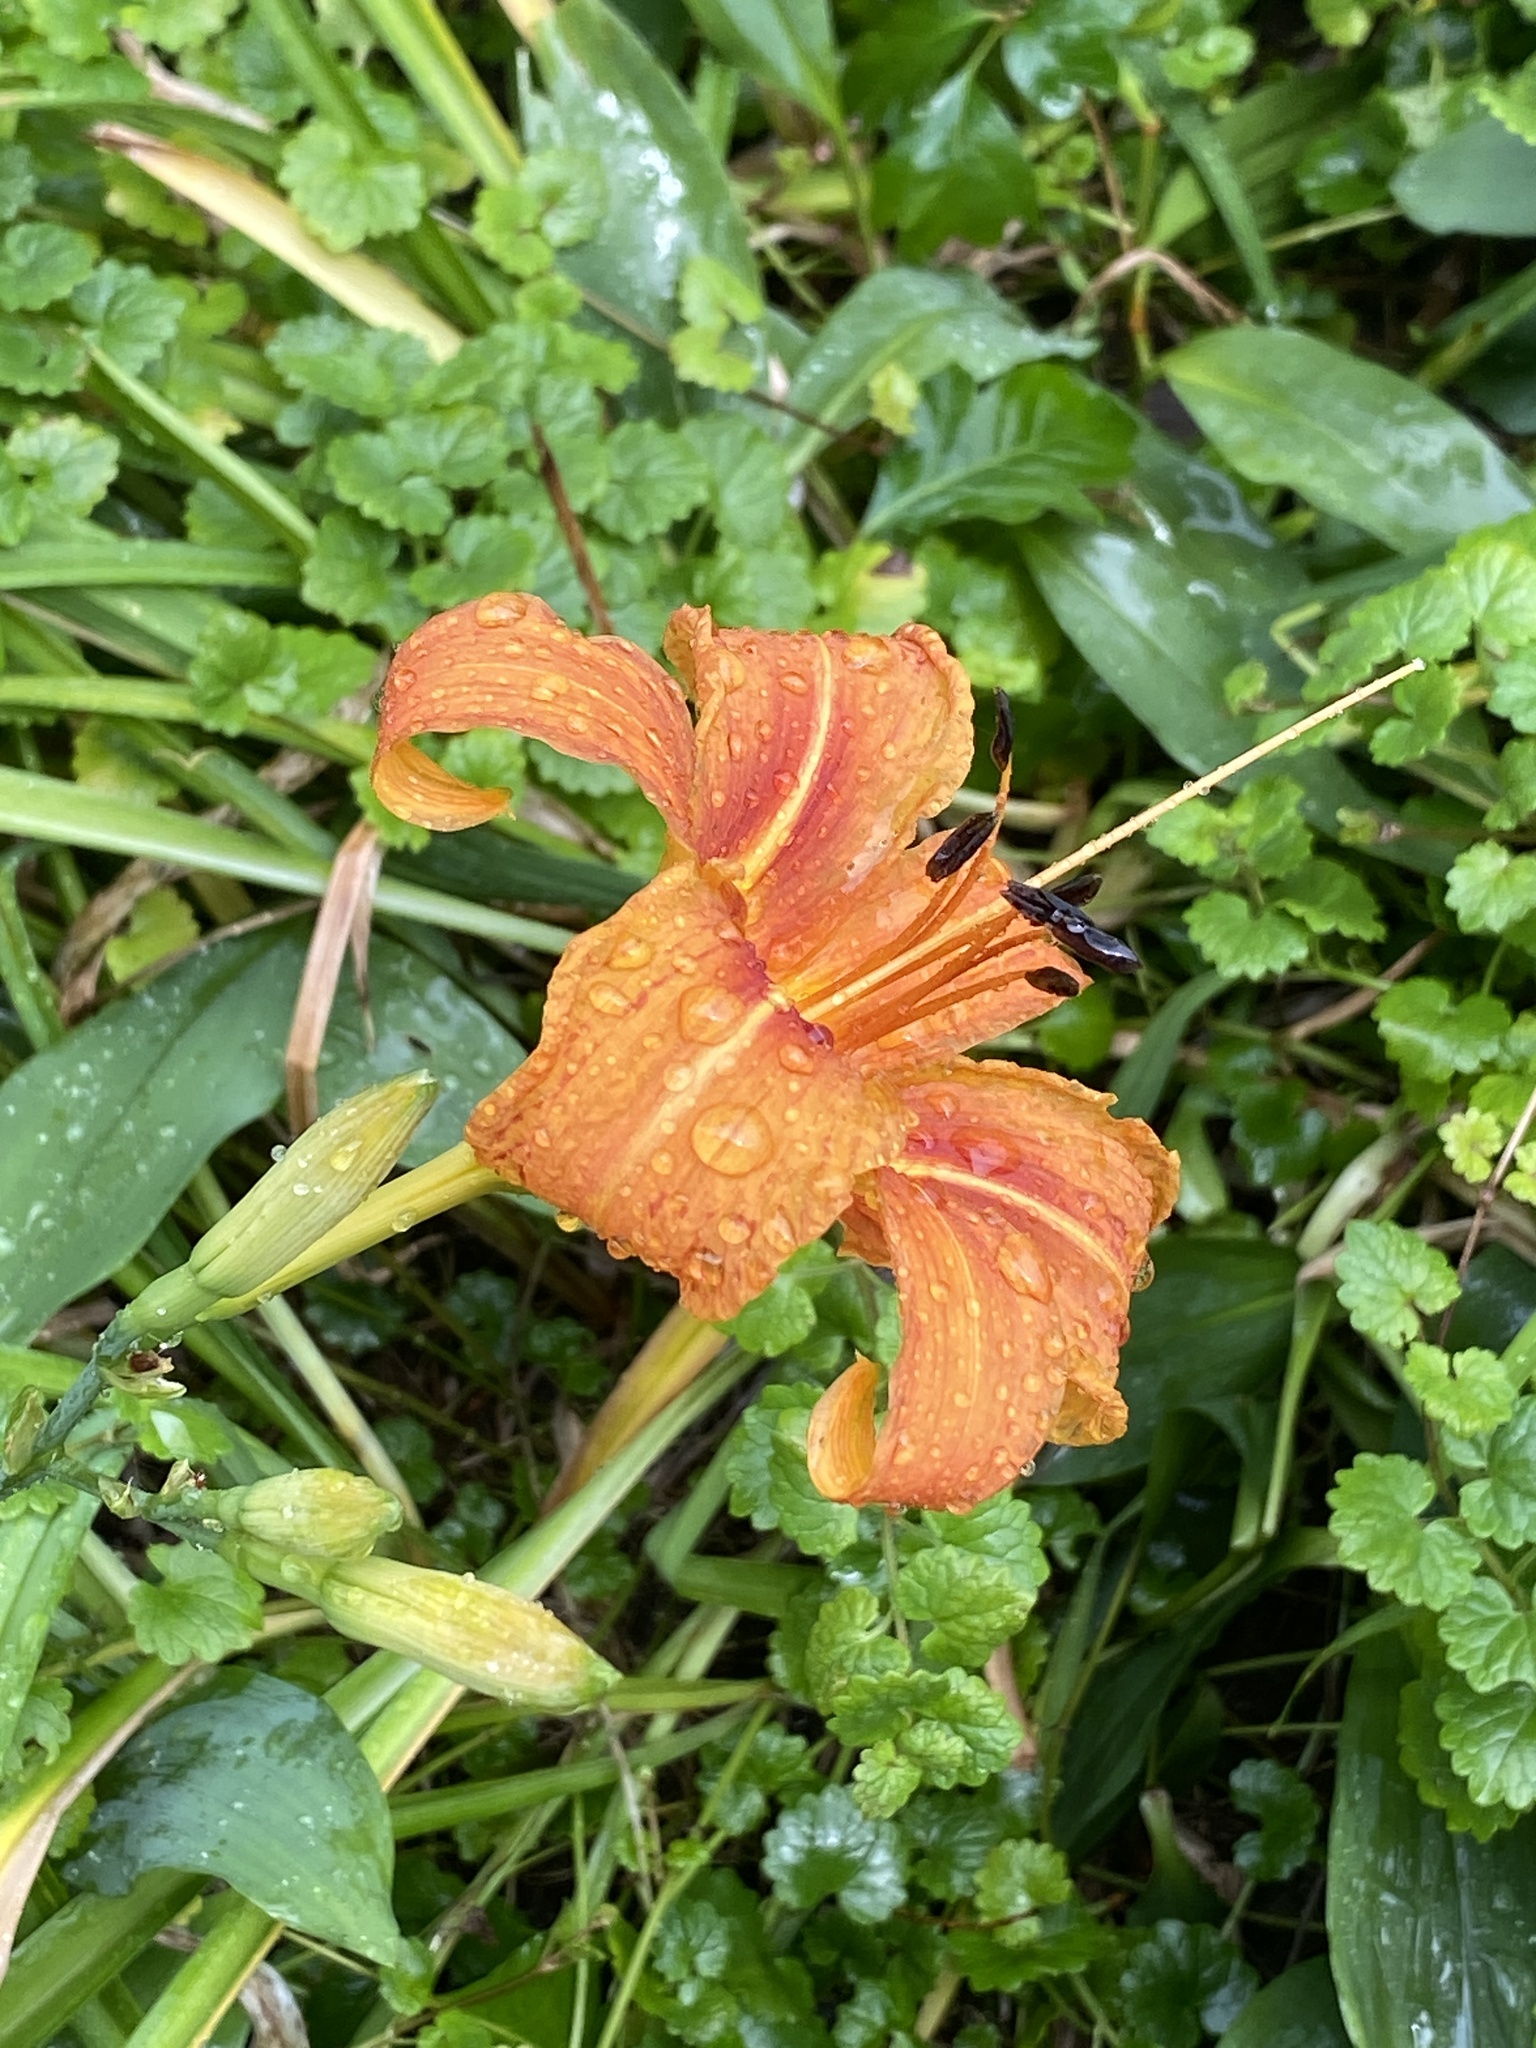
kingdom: Plantae
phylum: Tracheophyta
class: Liliopsida
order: Asparagales
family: Asphodelaceae
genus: Hemerocallis
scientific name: Hemerocallis fulva
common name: Orange day-lily
